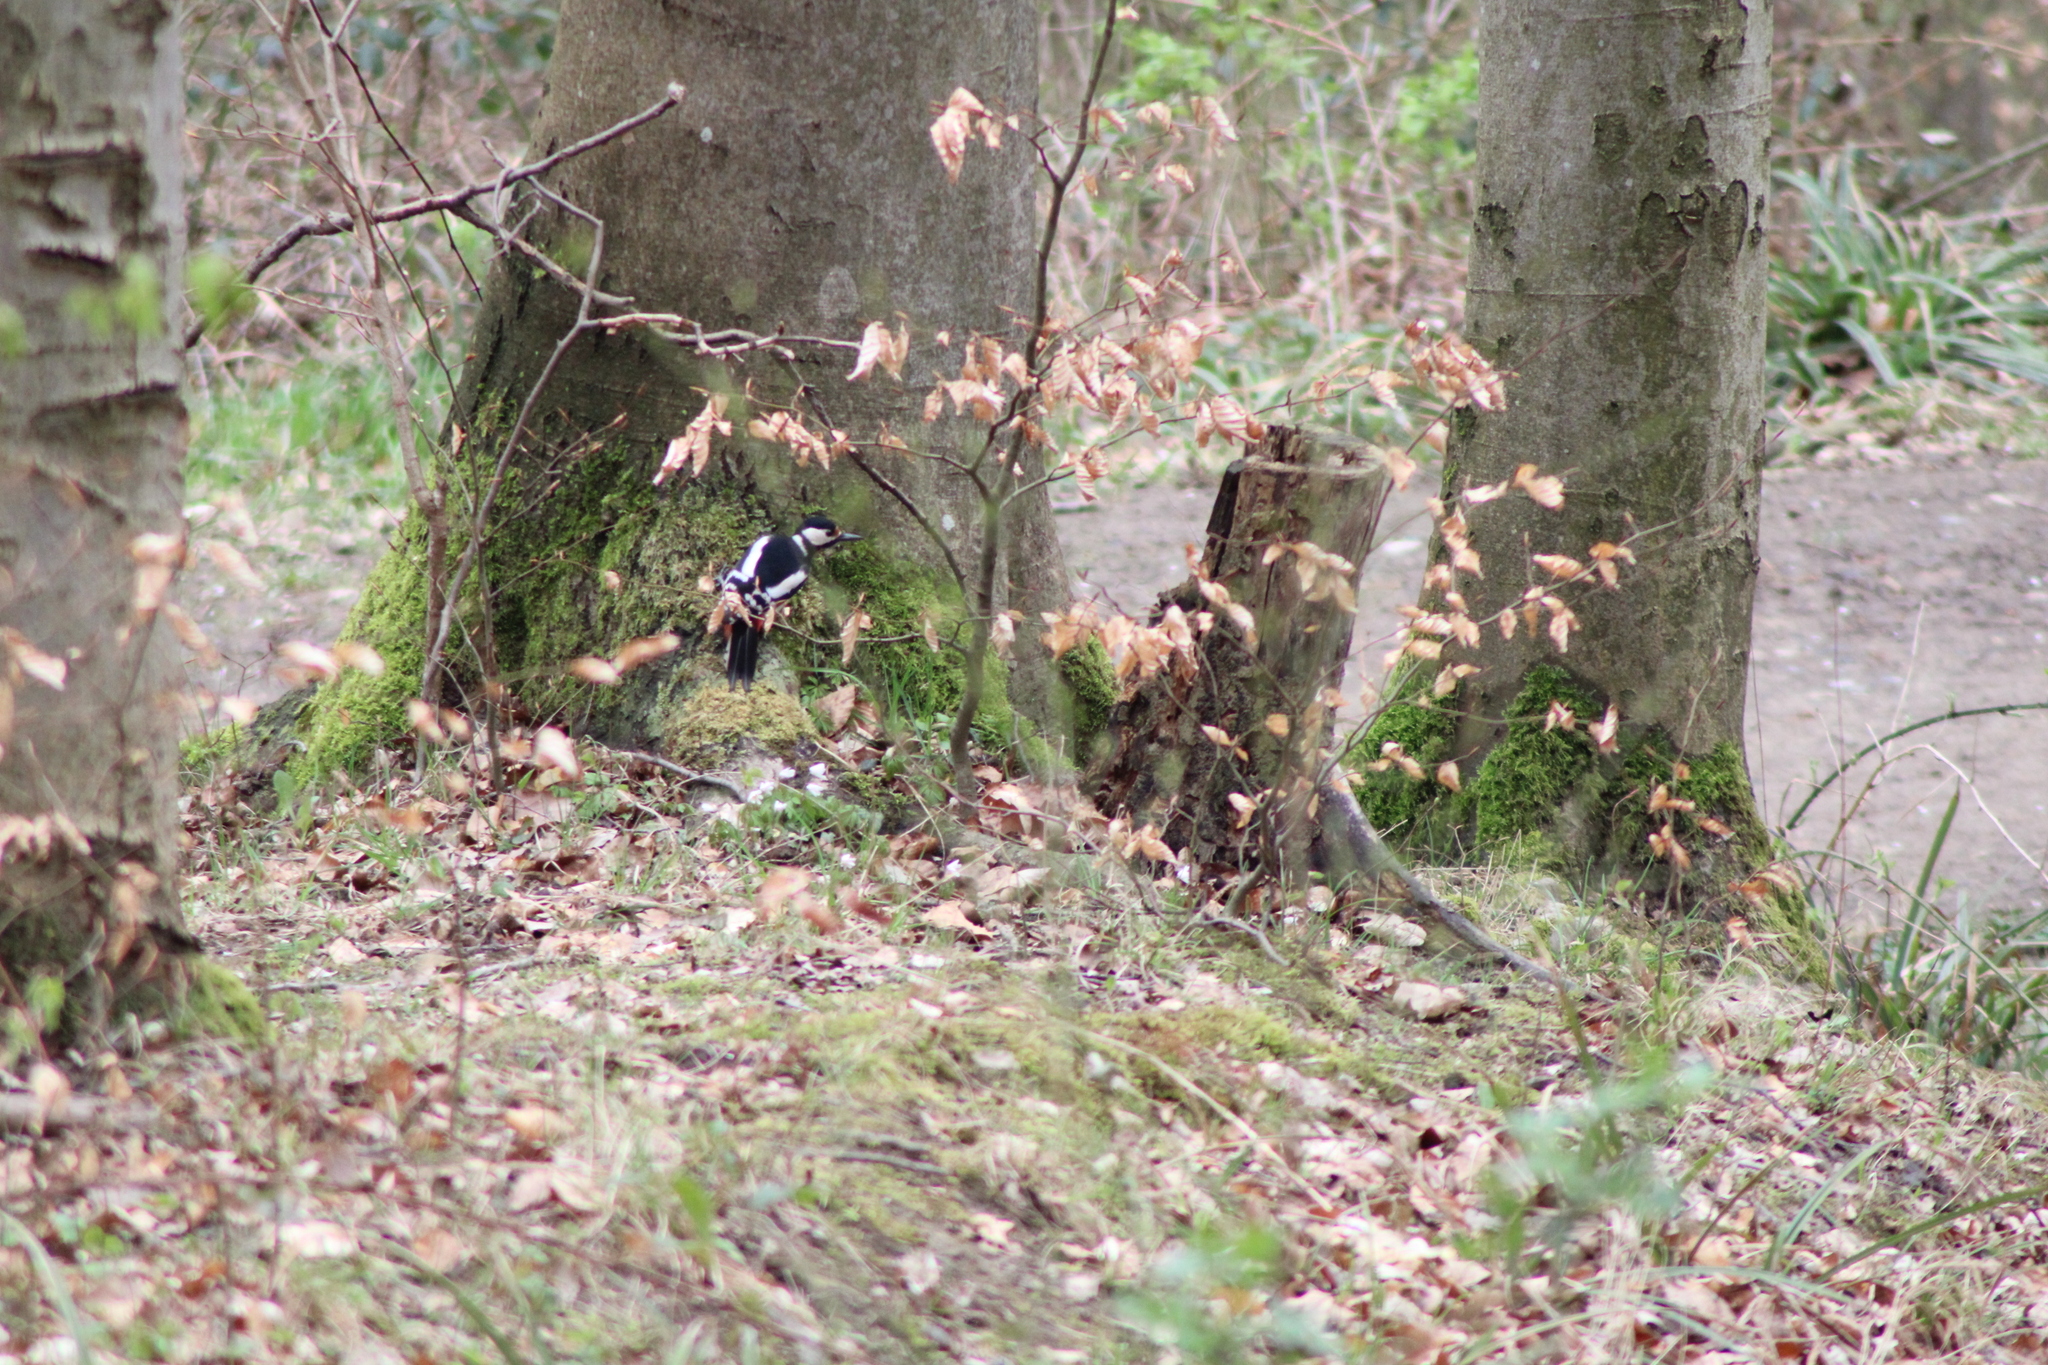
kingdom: Animalia
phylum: Chordata
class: Aves
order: Piciformes
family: Picidae
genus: Dendrocopos
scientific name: Dendrocopos major
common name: Great spotted woodpecker
